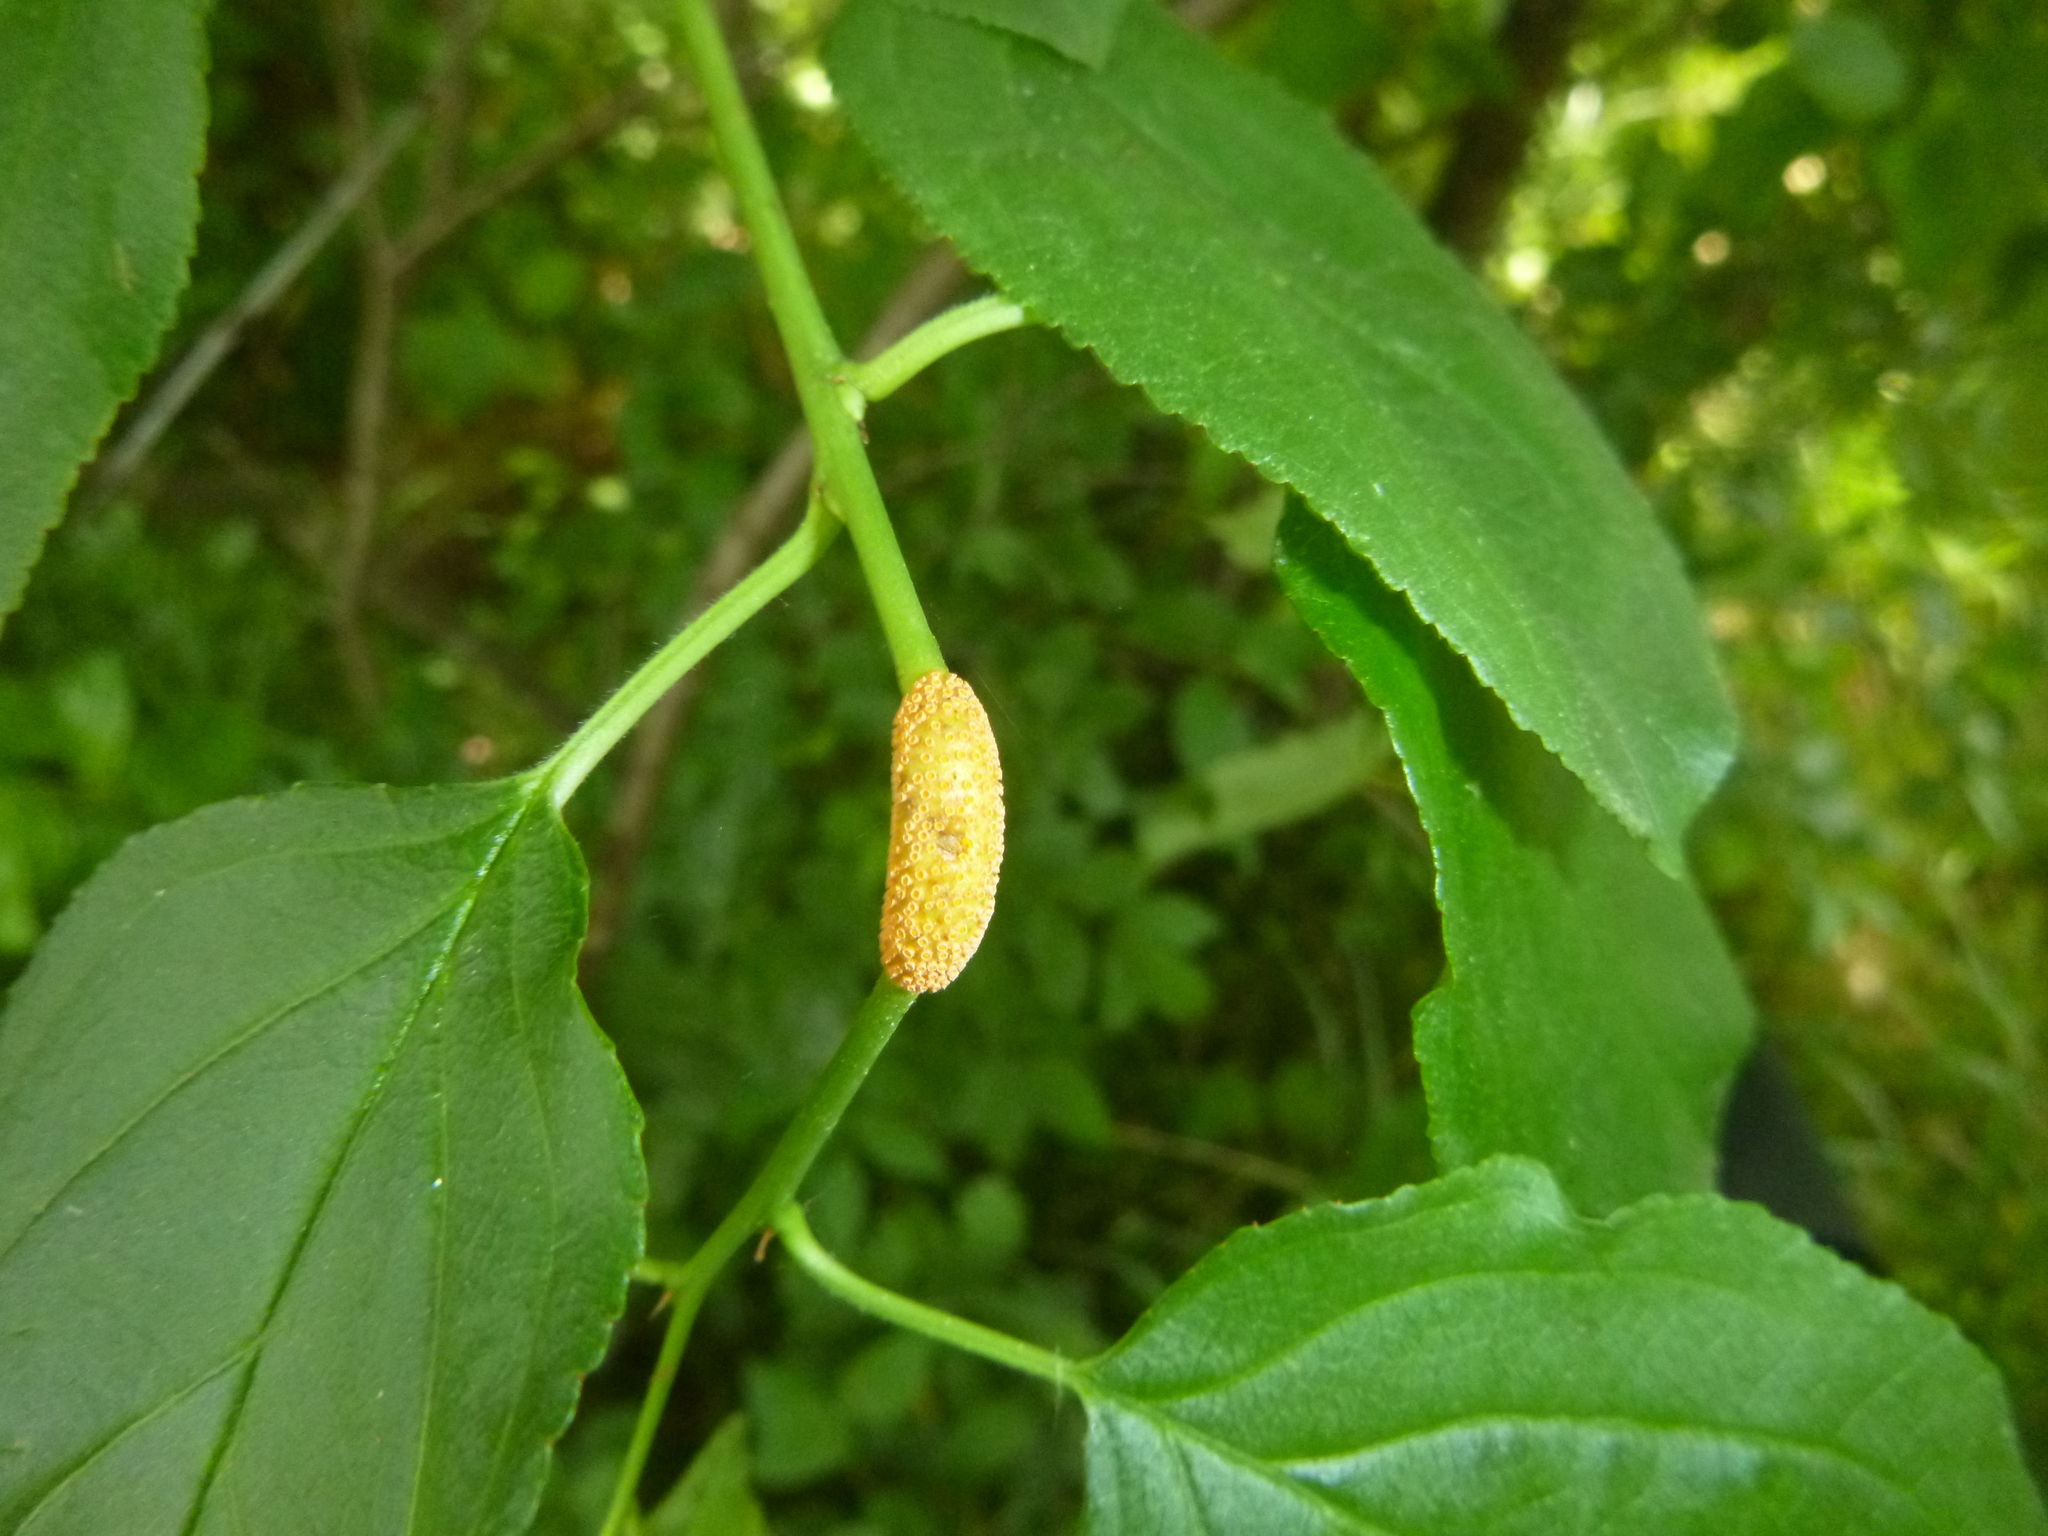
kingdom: Fungi
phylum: Basidiomycota
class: Pucciniomycetes
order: Pucciniales
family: Pucciniaceae
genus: Puccinia
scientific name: Puccinia coronata
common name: Crown rust
